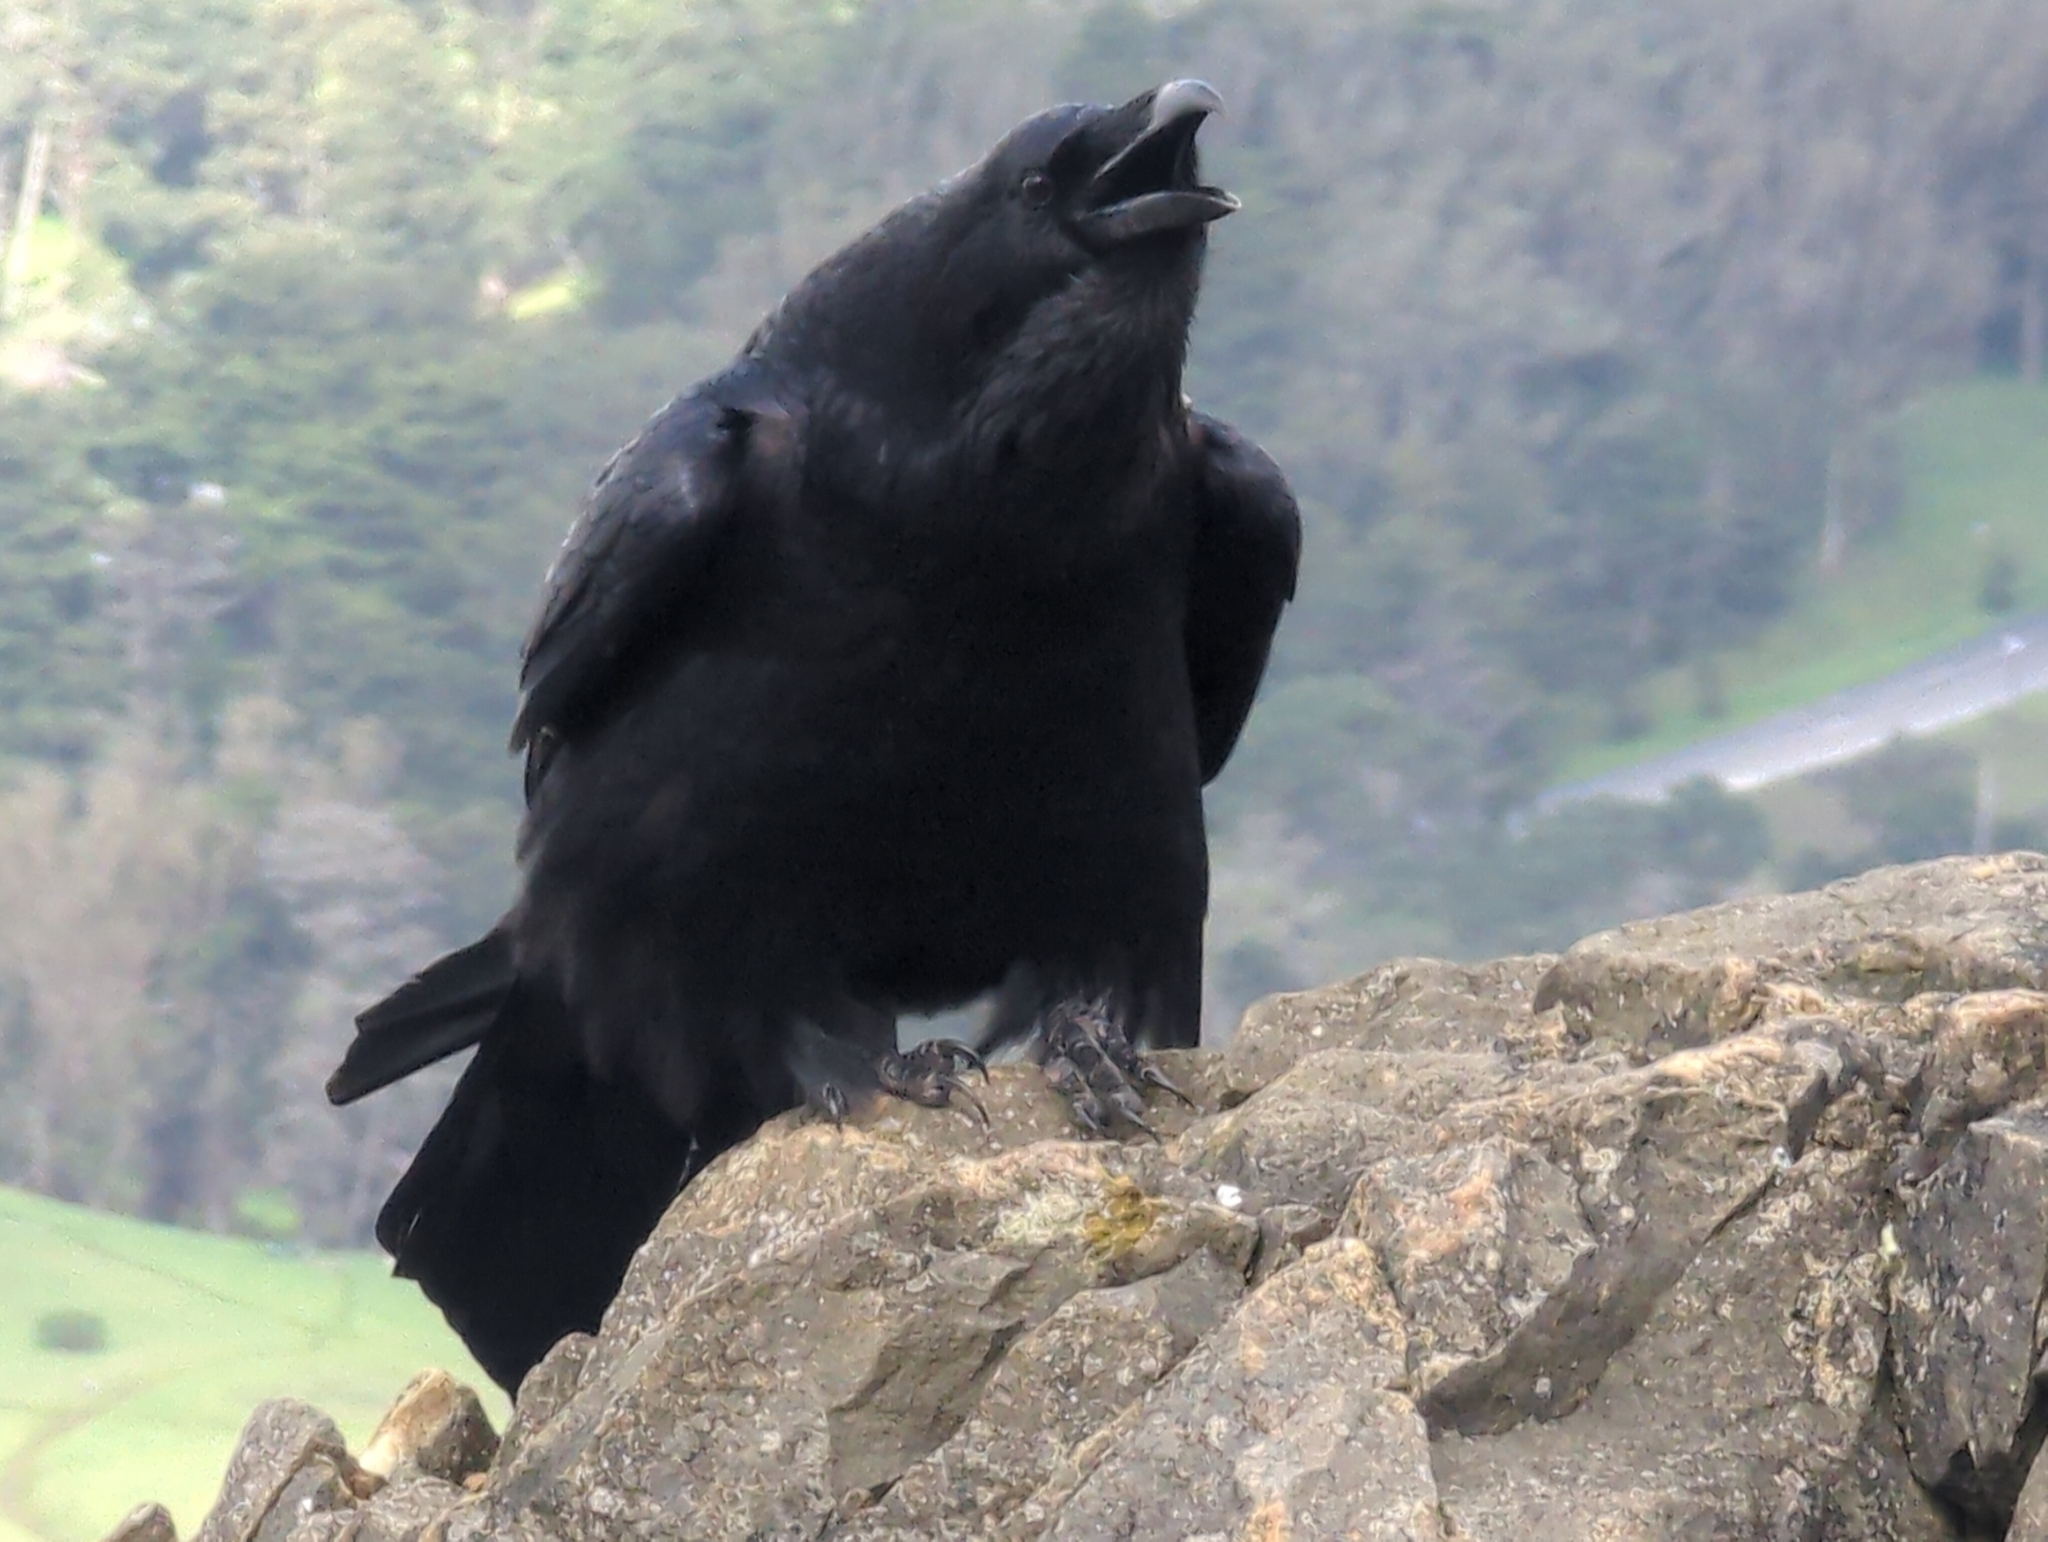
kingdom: Animalia
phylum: Chordata
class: Aves
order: Passeriformes
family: Corvidae
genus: Corvus
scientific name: Corvus corax
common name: Common raven
